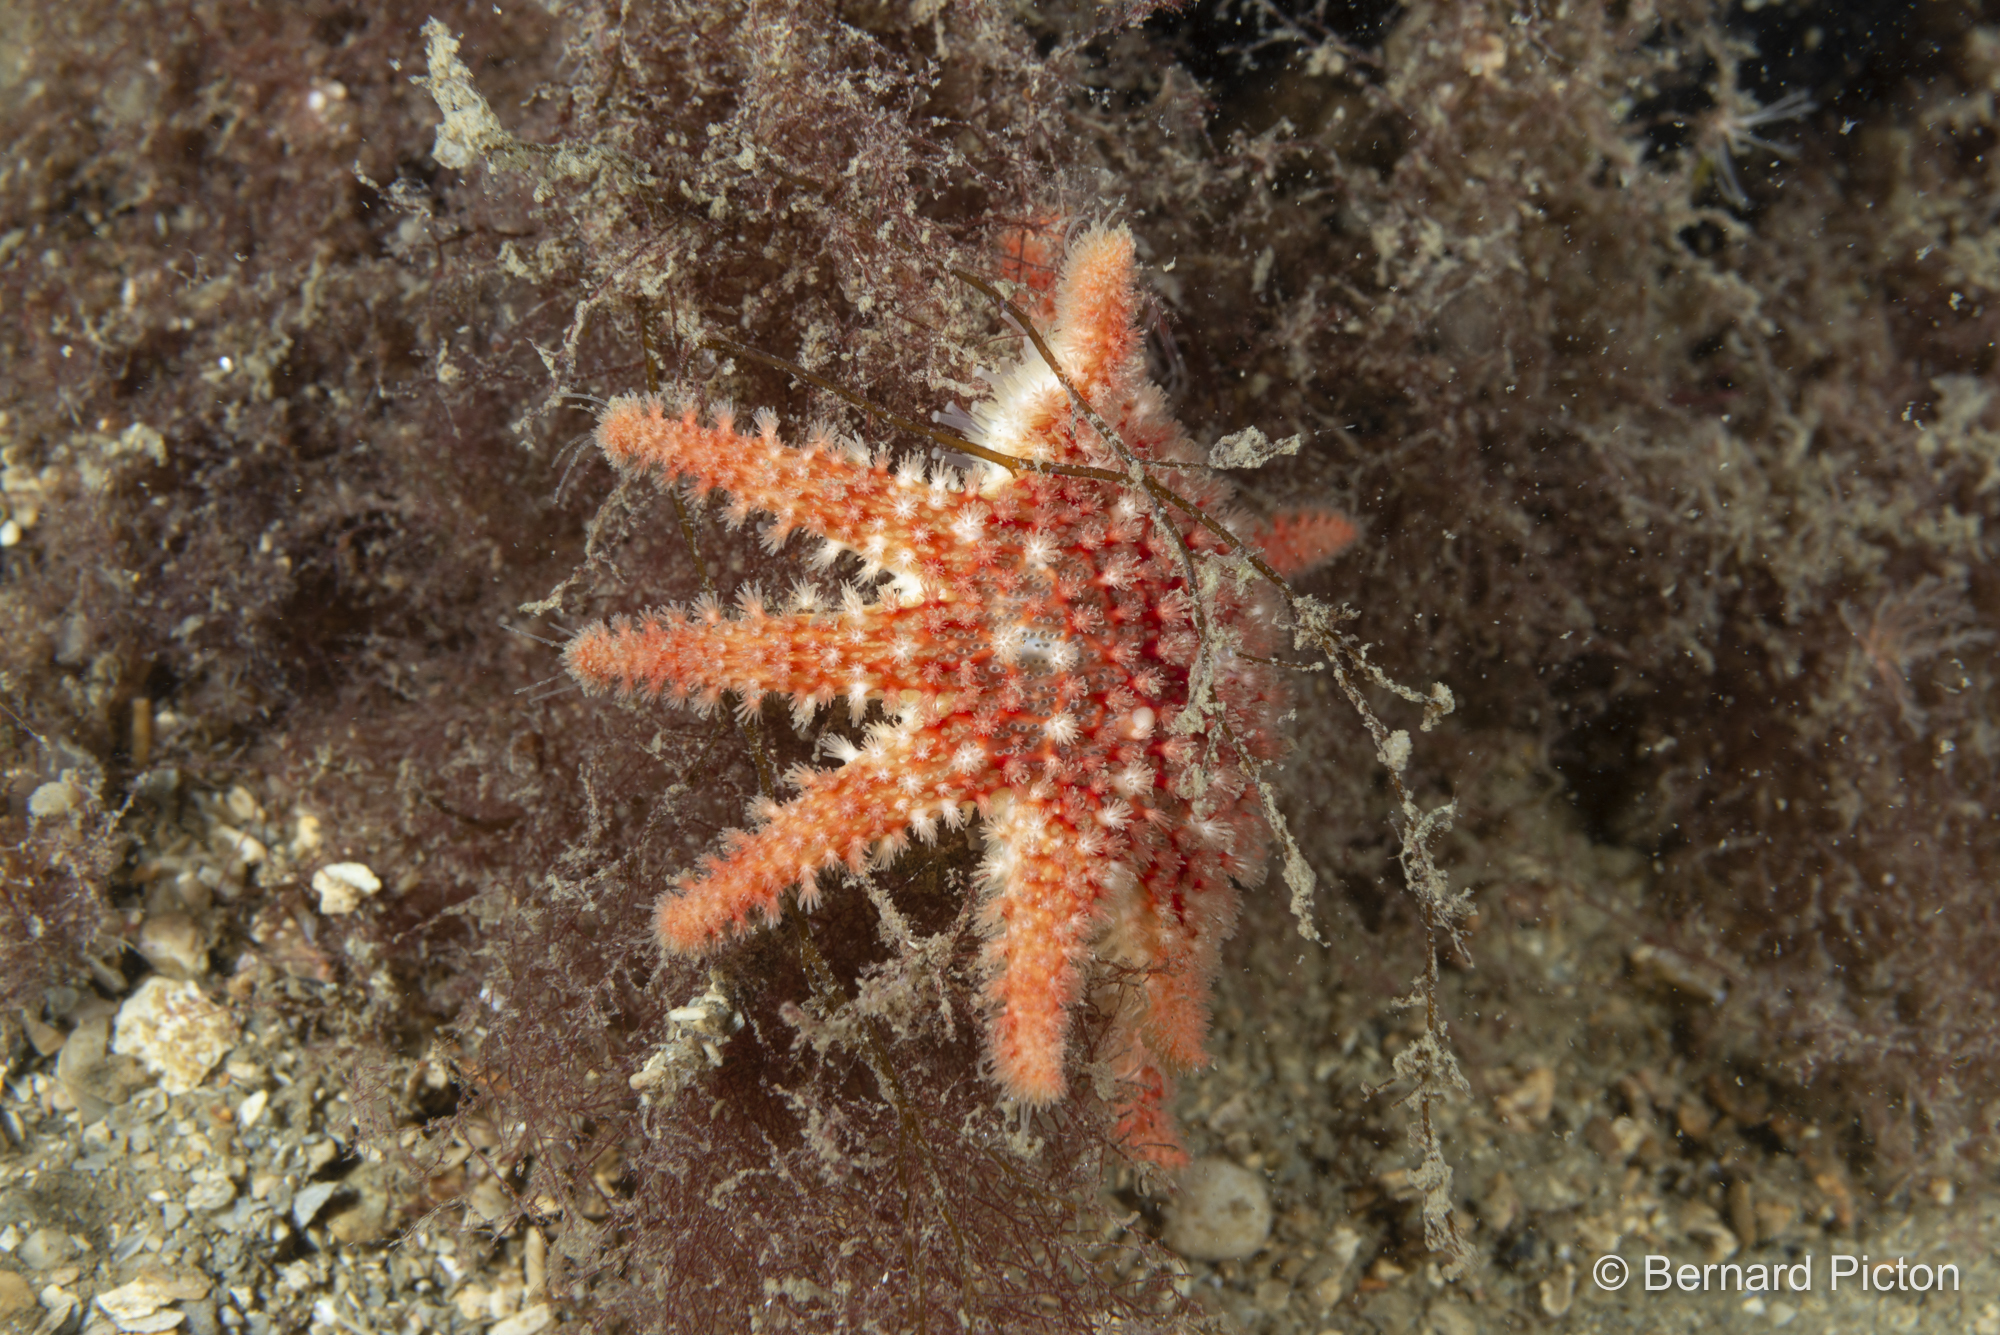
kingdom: Animalia
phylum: Echinodermata
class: Asteroidea
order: Valvatida
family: Solasteridae
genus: Crossaster
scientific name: Crossaster papposus
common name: Common sun star
